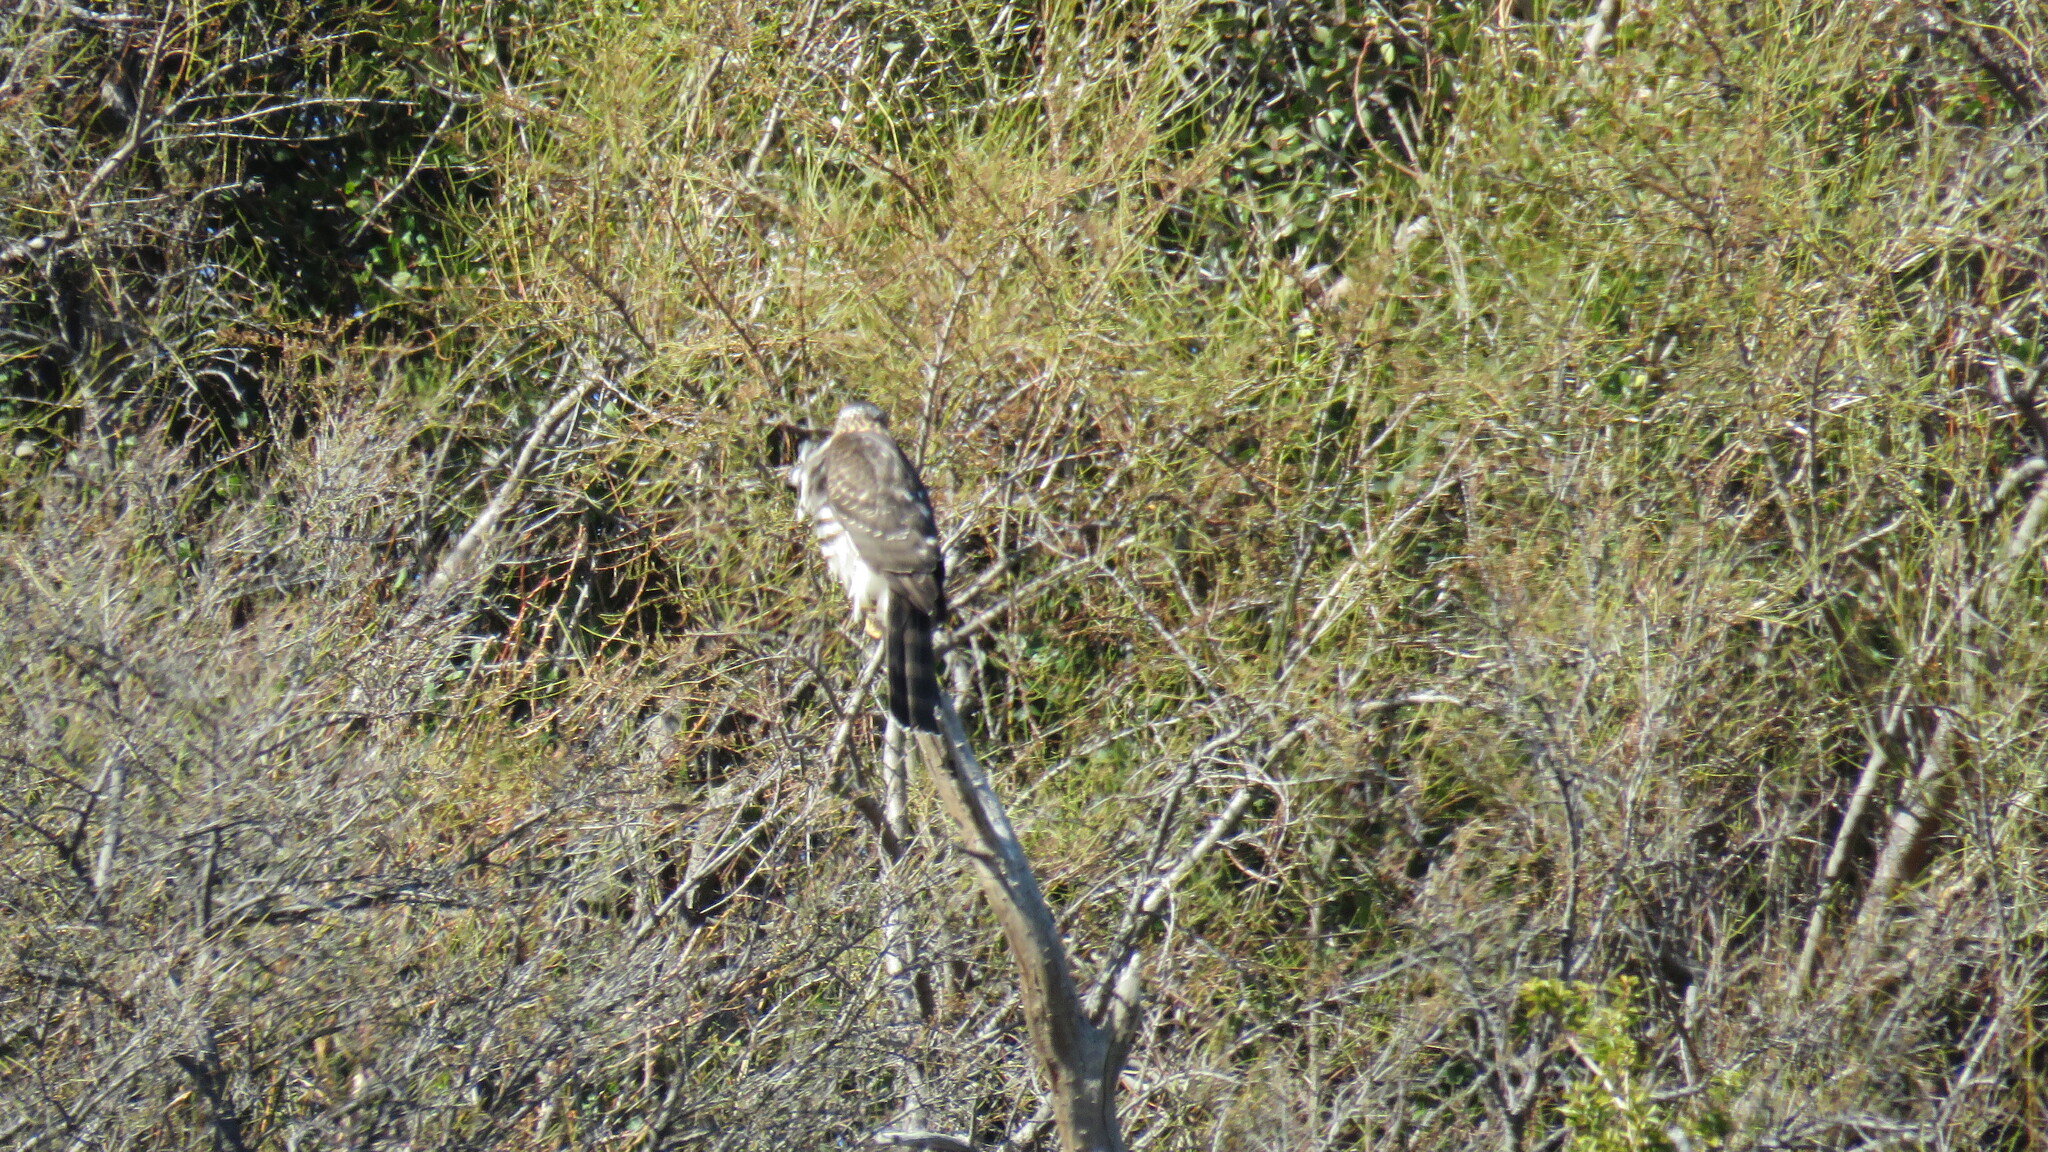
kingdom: Animalia
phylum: Chordata
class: Aves
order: Accipitriformes
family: Accipitridae
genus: Accipiter
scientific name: Accipiter chilensis
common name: Chilean hawk
